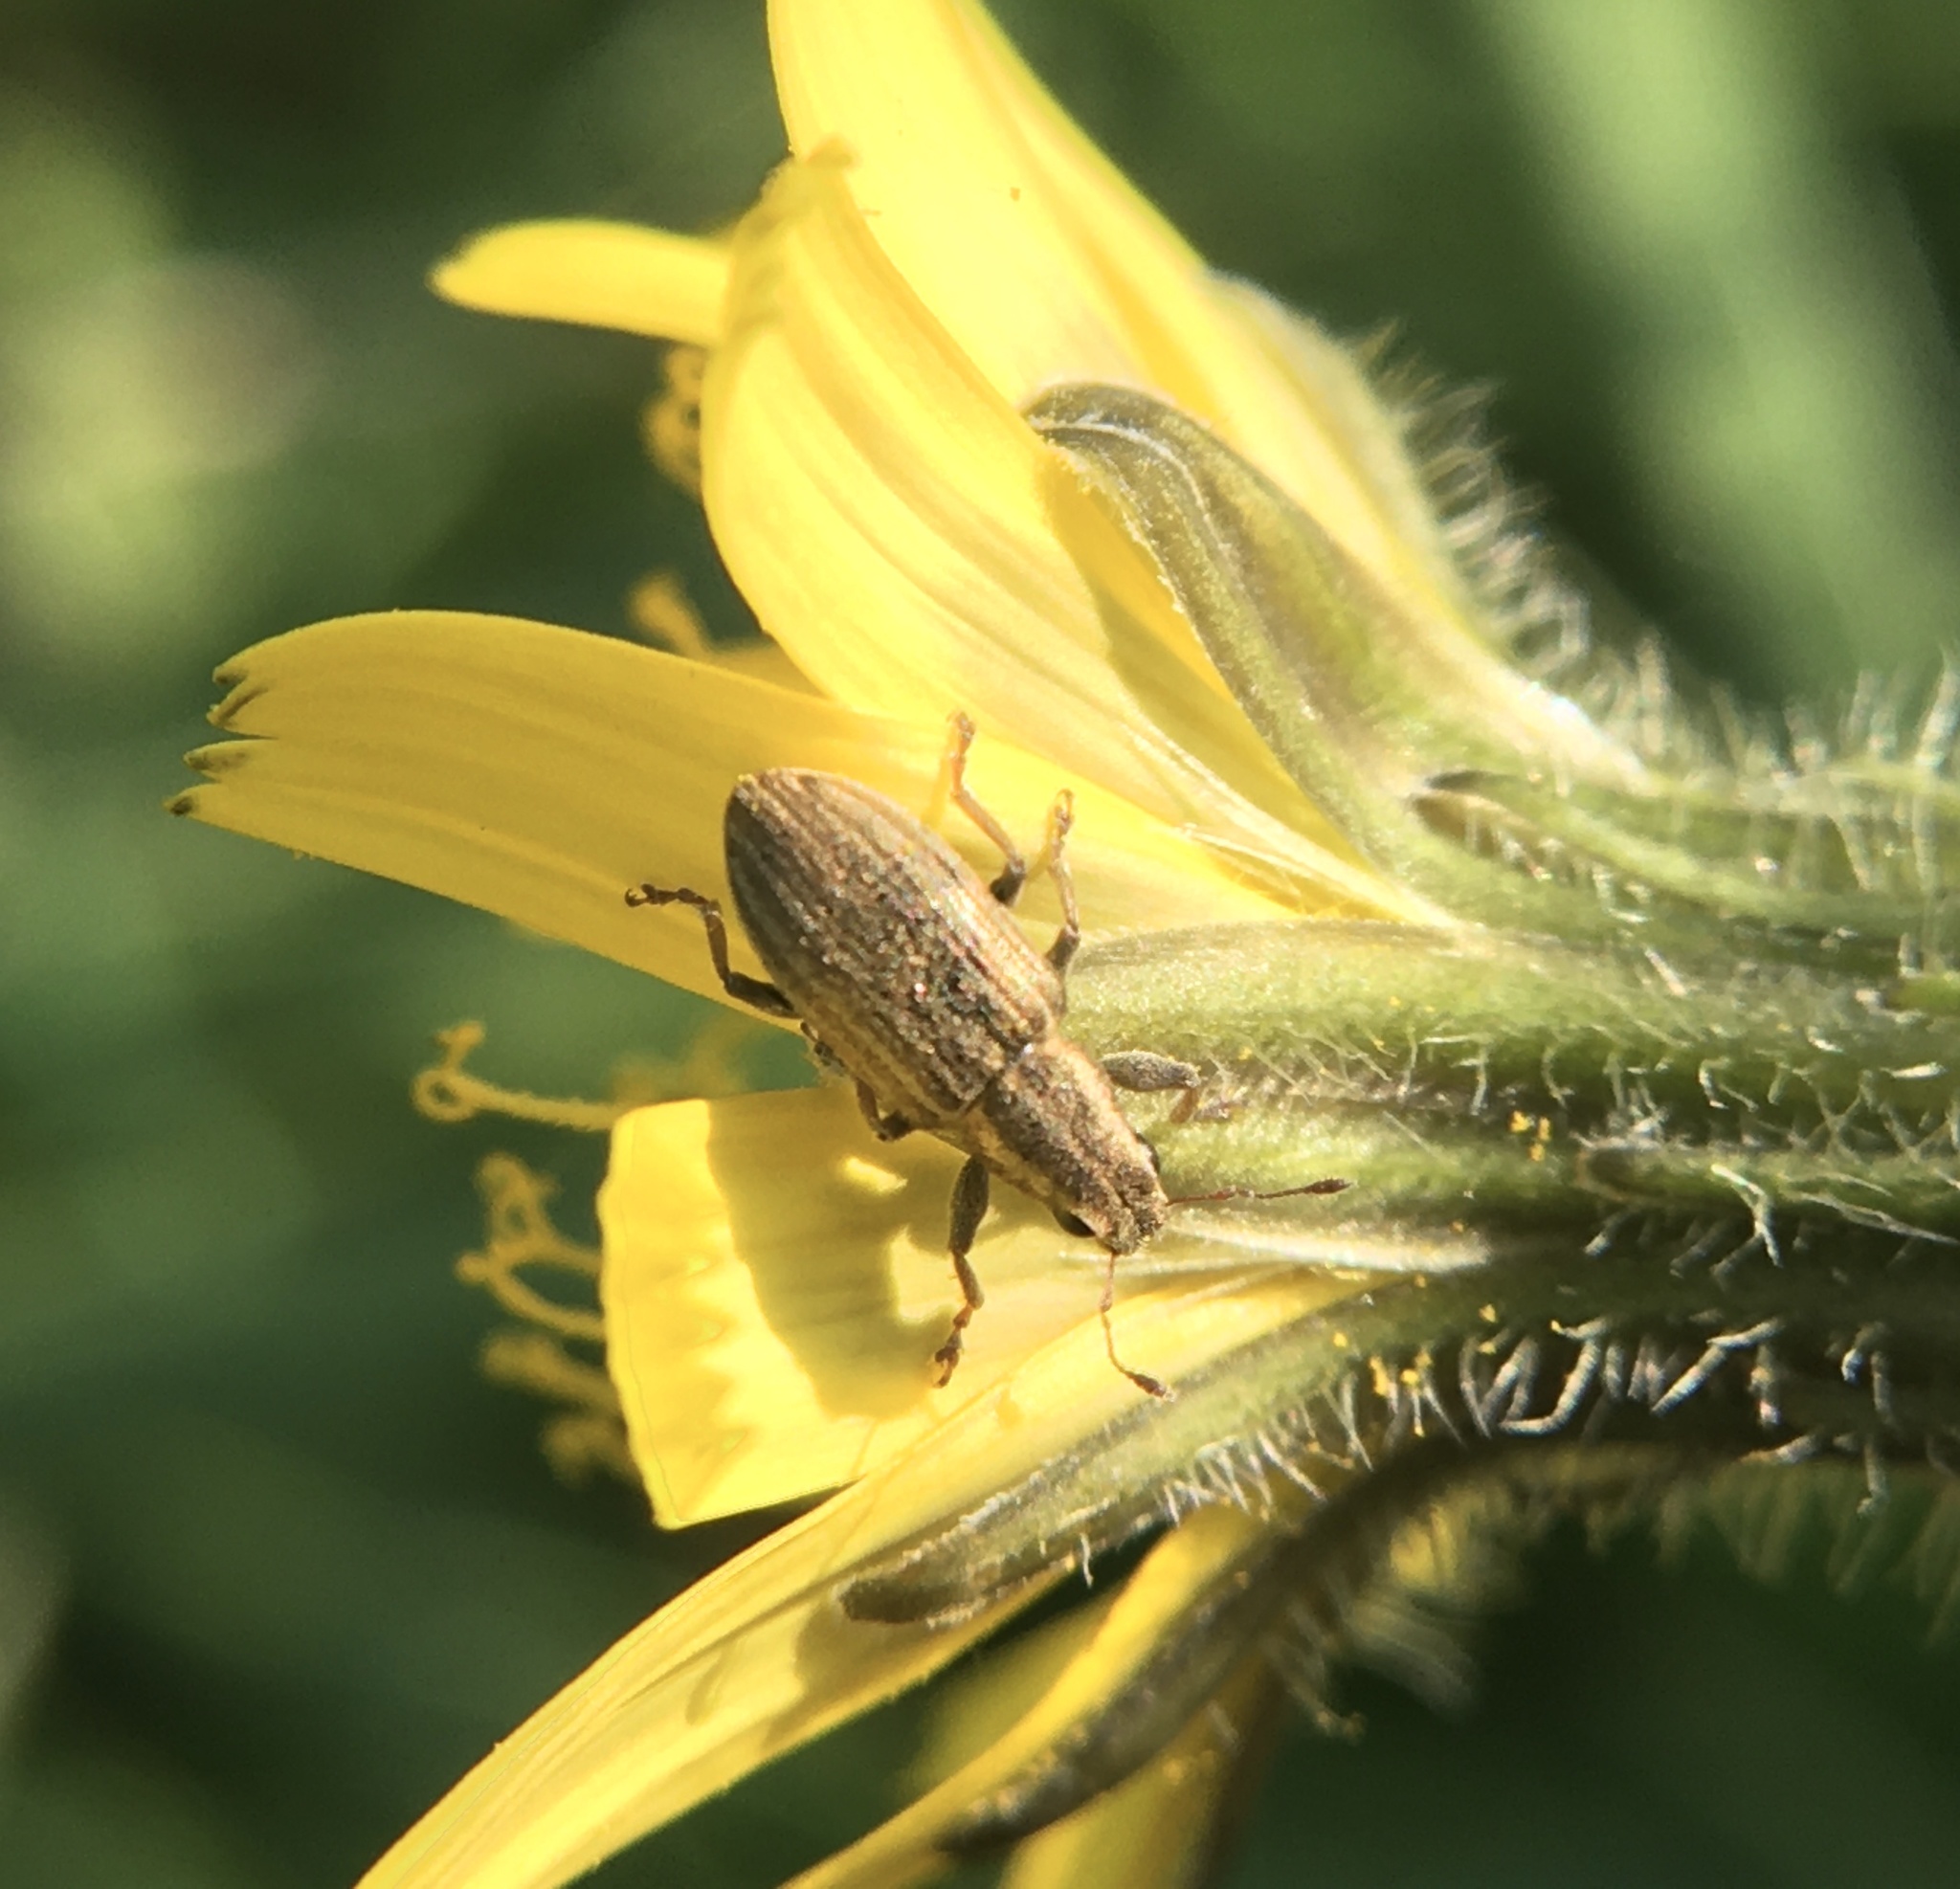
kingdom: Animalia
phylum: Arthropoda
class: Insecta
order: Coleoptera
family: Curculionidae
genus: Sitona
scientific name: Sitona lineatus
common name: Weevil
